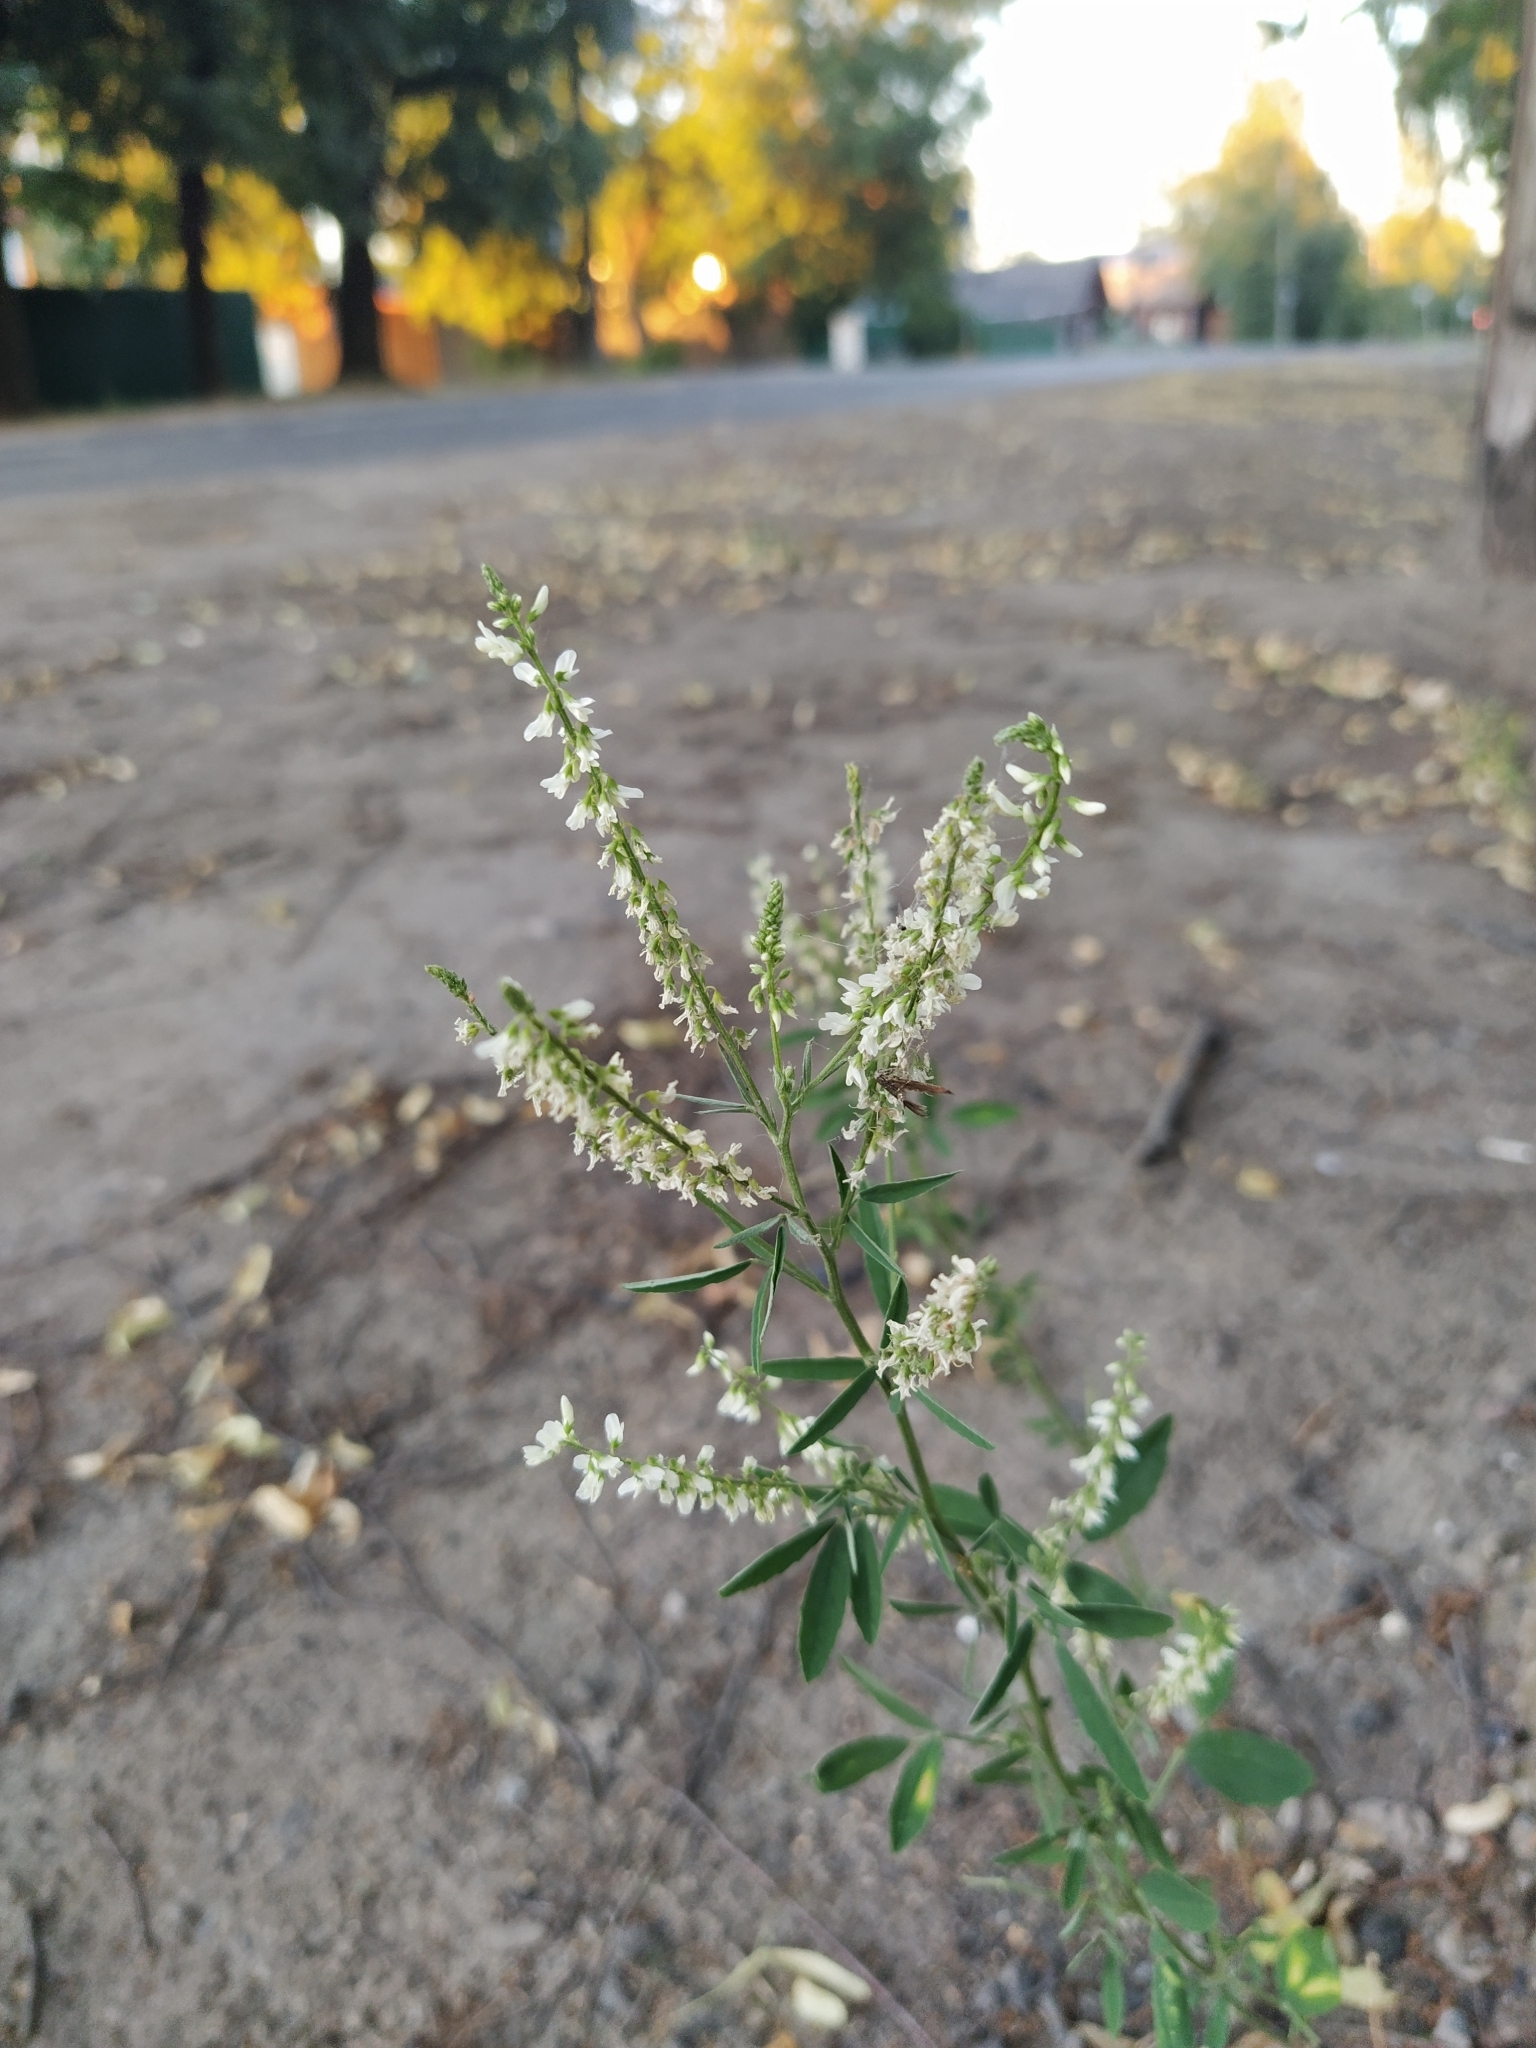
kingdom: Plantae
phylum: Tracheophyta
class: Magnoliopsida
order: Fabales
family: Fabaceae
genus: Melilotus
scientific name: Melilotus albus
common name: White melilot
